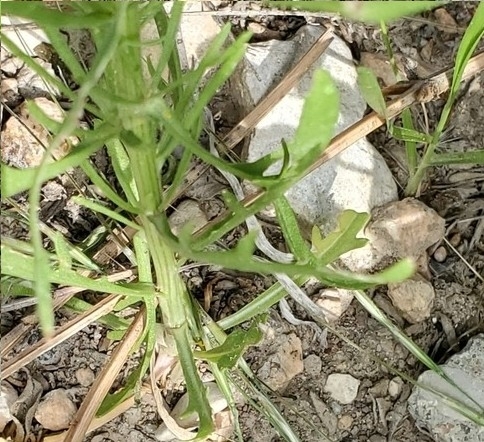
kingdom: Plantae
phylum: Tracheophyta
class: Magnoliopsida
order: Asterales
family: Asteraceae
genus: Helenium
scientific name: Helenium amarum
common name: Bitter sneezeweed
